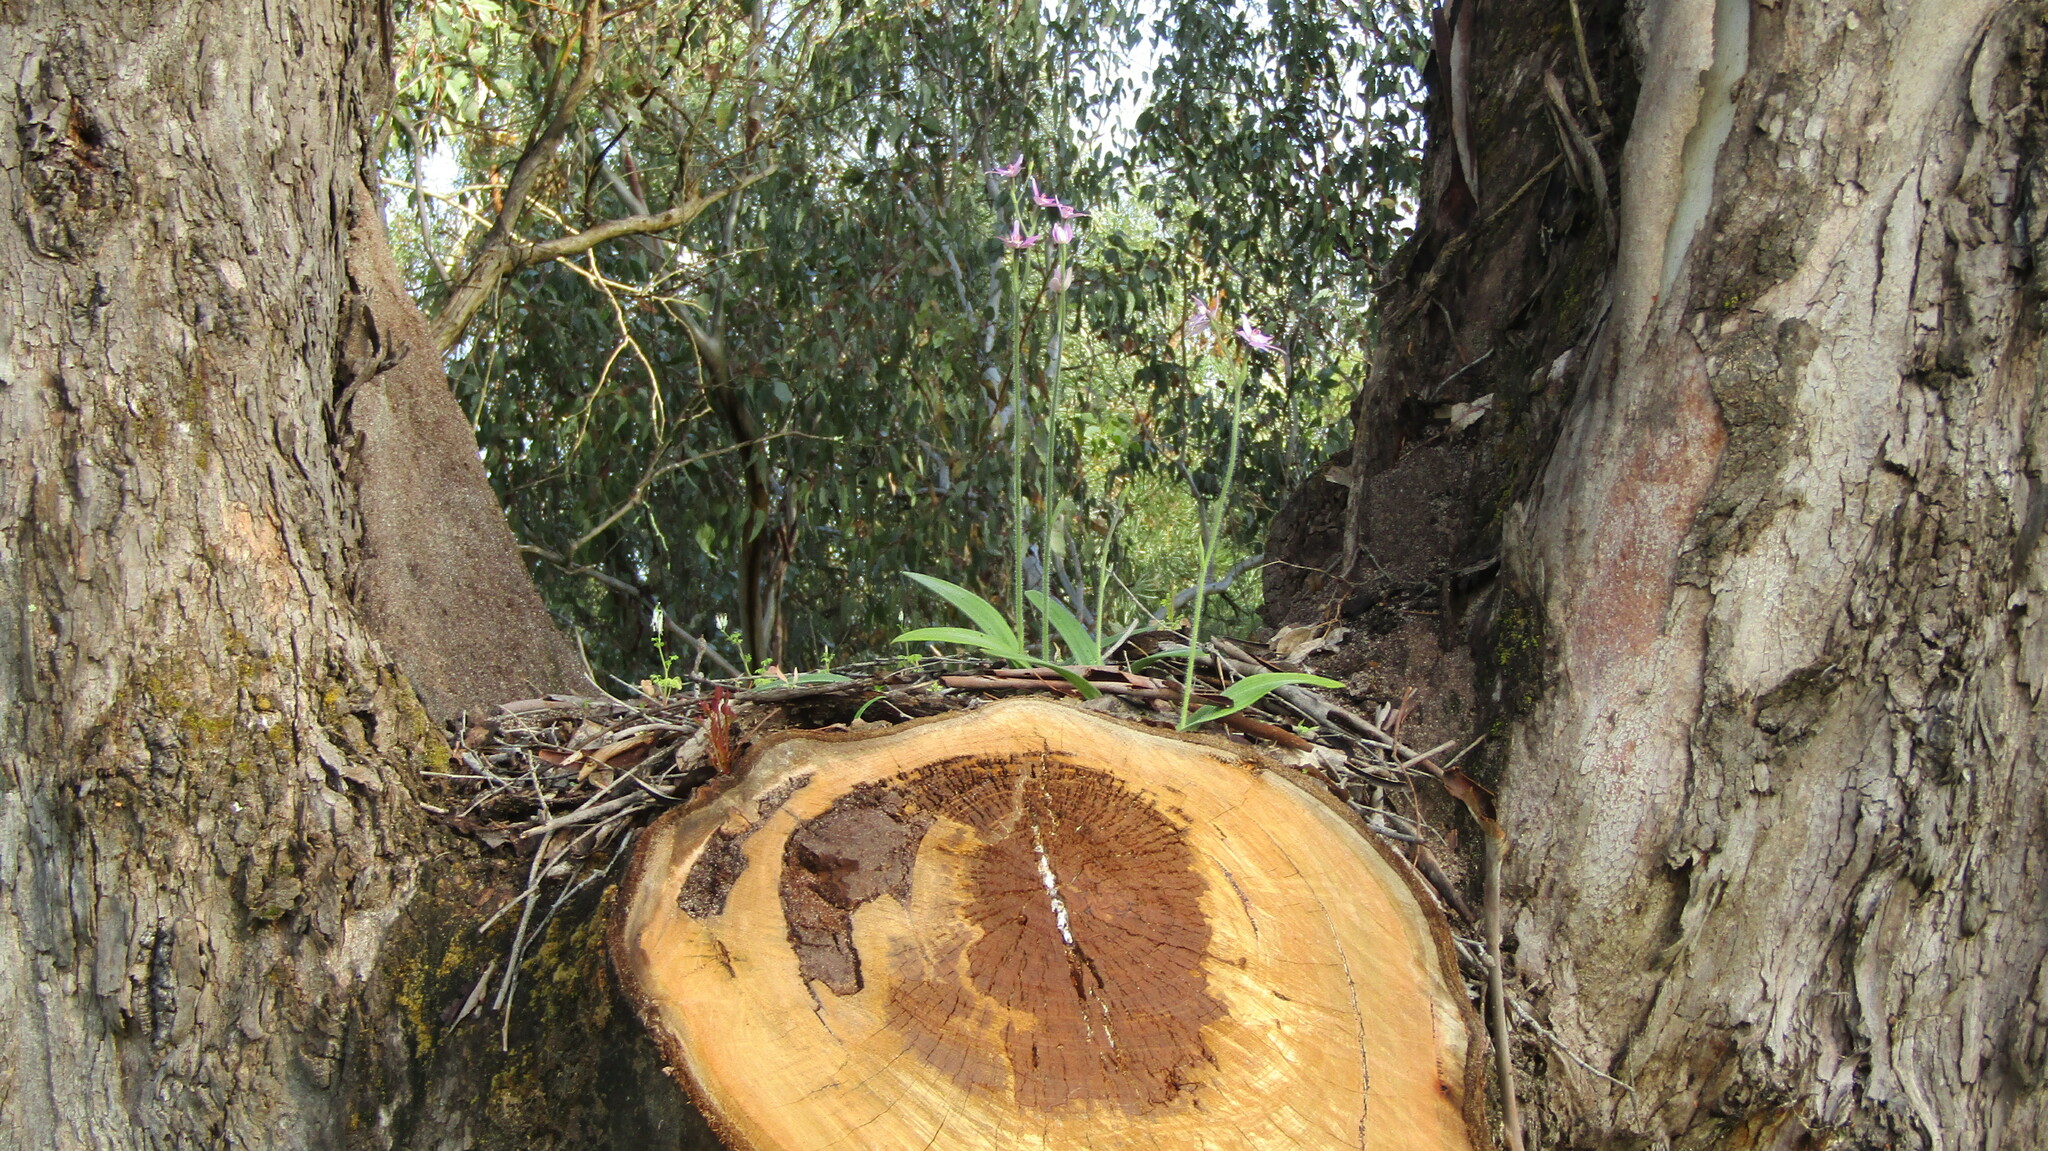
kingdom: Plantae
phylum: Tracheophyta
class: Liliopsida
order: Asparagales
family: Orchidaceae
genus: Caladenia
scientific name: Caladenia latifolia
